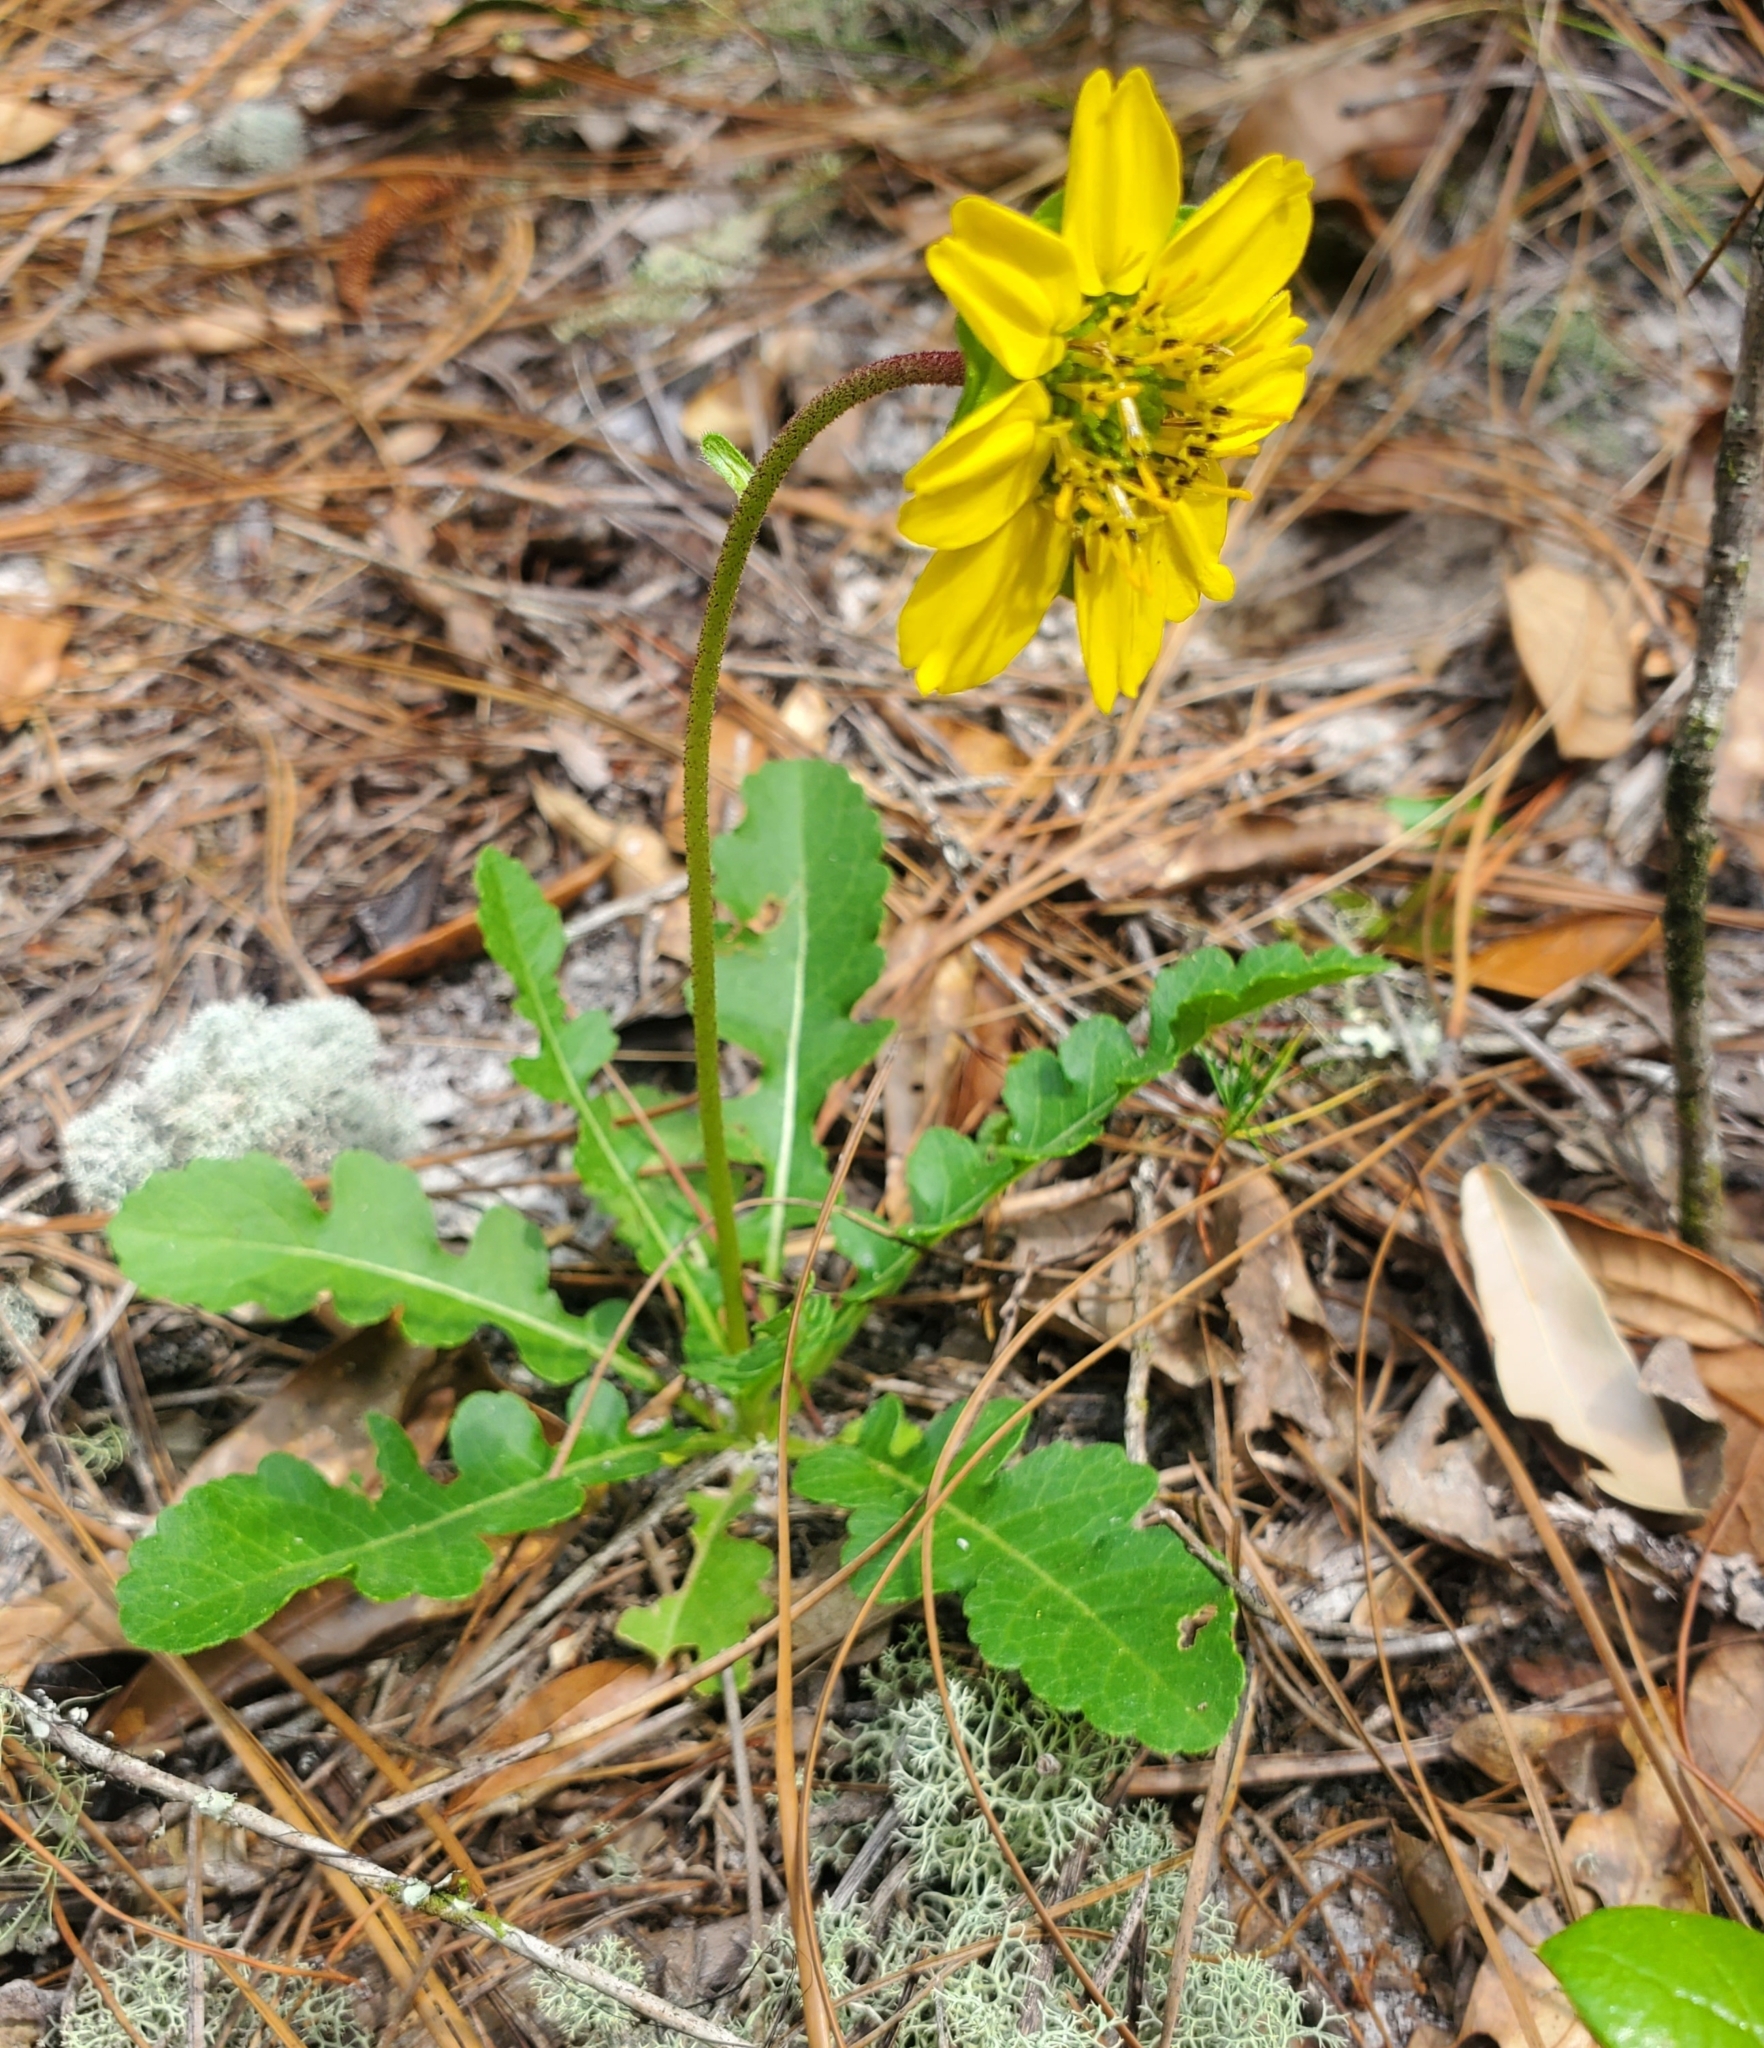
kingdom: Plantae
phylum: Tracheophyta
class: Magnoliopsida
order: Asterales
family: Asteraceae
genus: Berlandiera
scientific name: Berlandiera subacaulis
